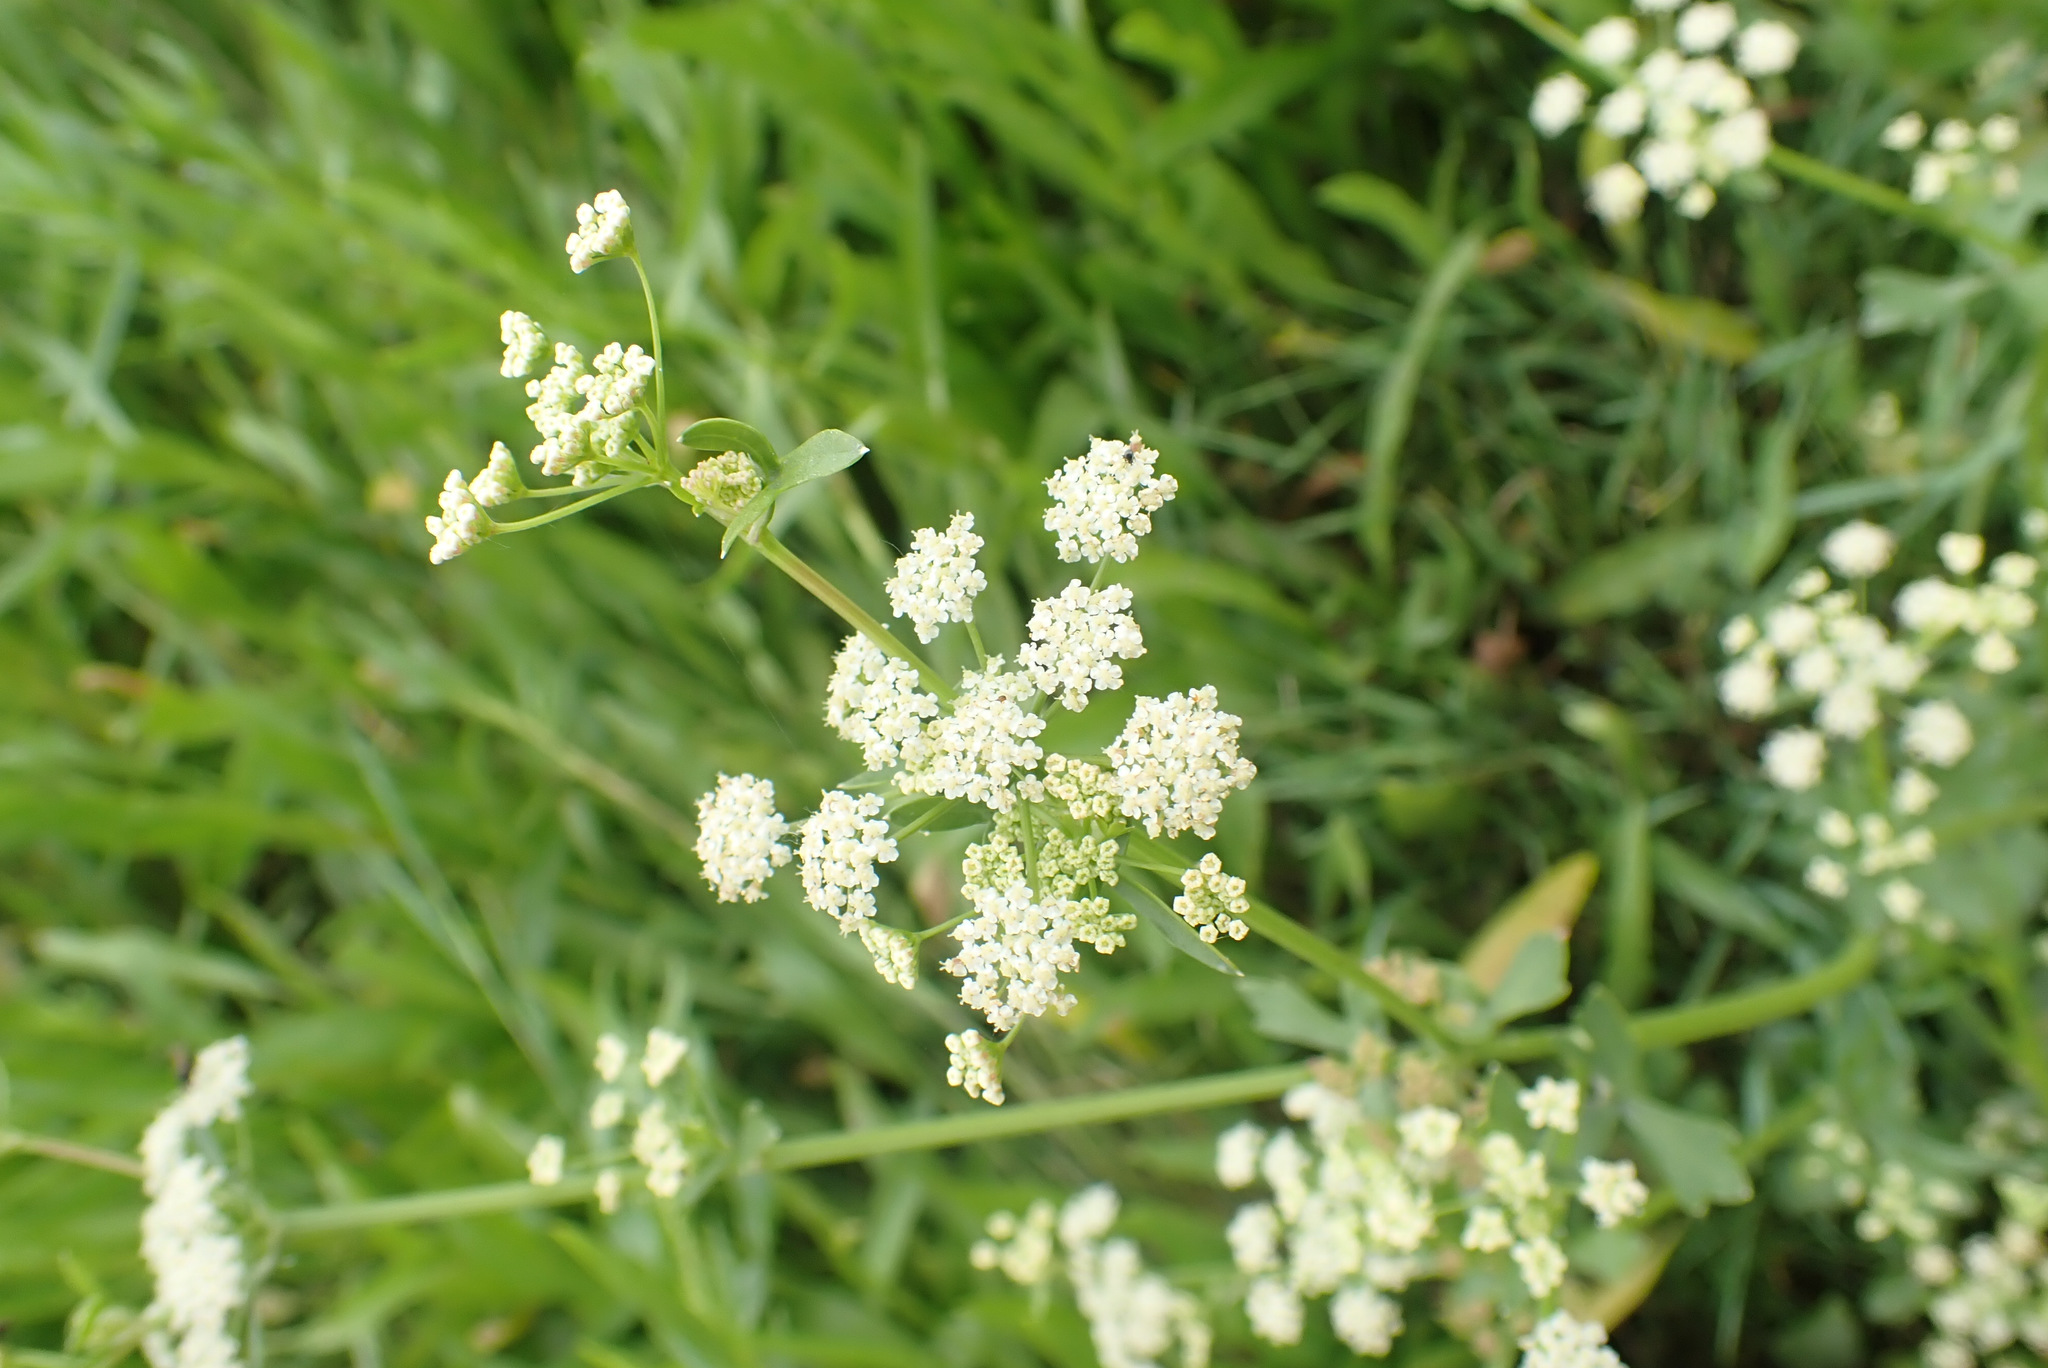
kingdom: Plantae
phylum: Tracheophyta
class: Magnoliopsida
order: Apiales
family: Apiaceae
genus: Apium
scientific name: Apium graveolens
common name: Wild celery
